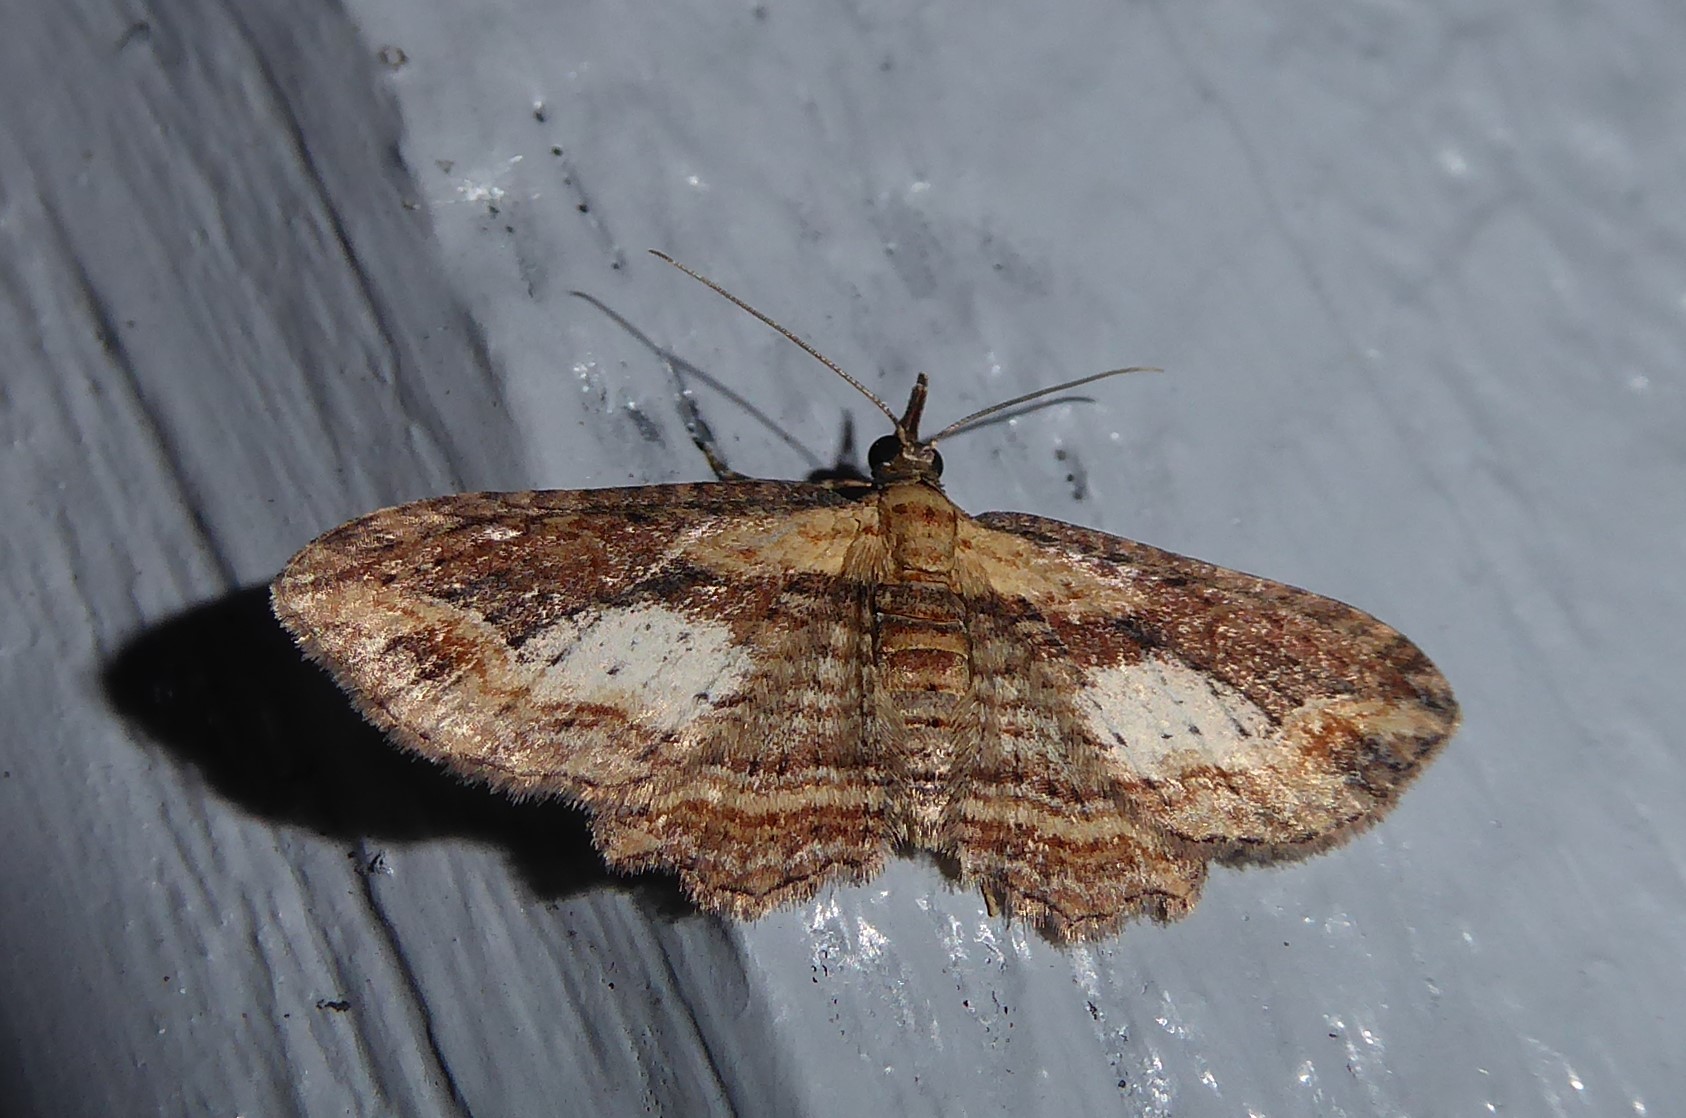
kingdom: Animalia
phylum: Arthropoda
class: Insecta
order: Lepidoptera
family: Geometridae
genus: Chloroclystis
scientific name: Chloroclystis filata
